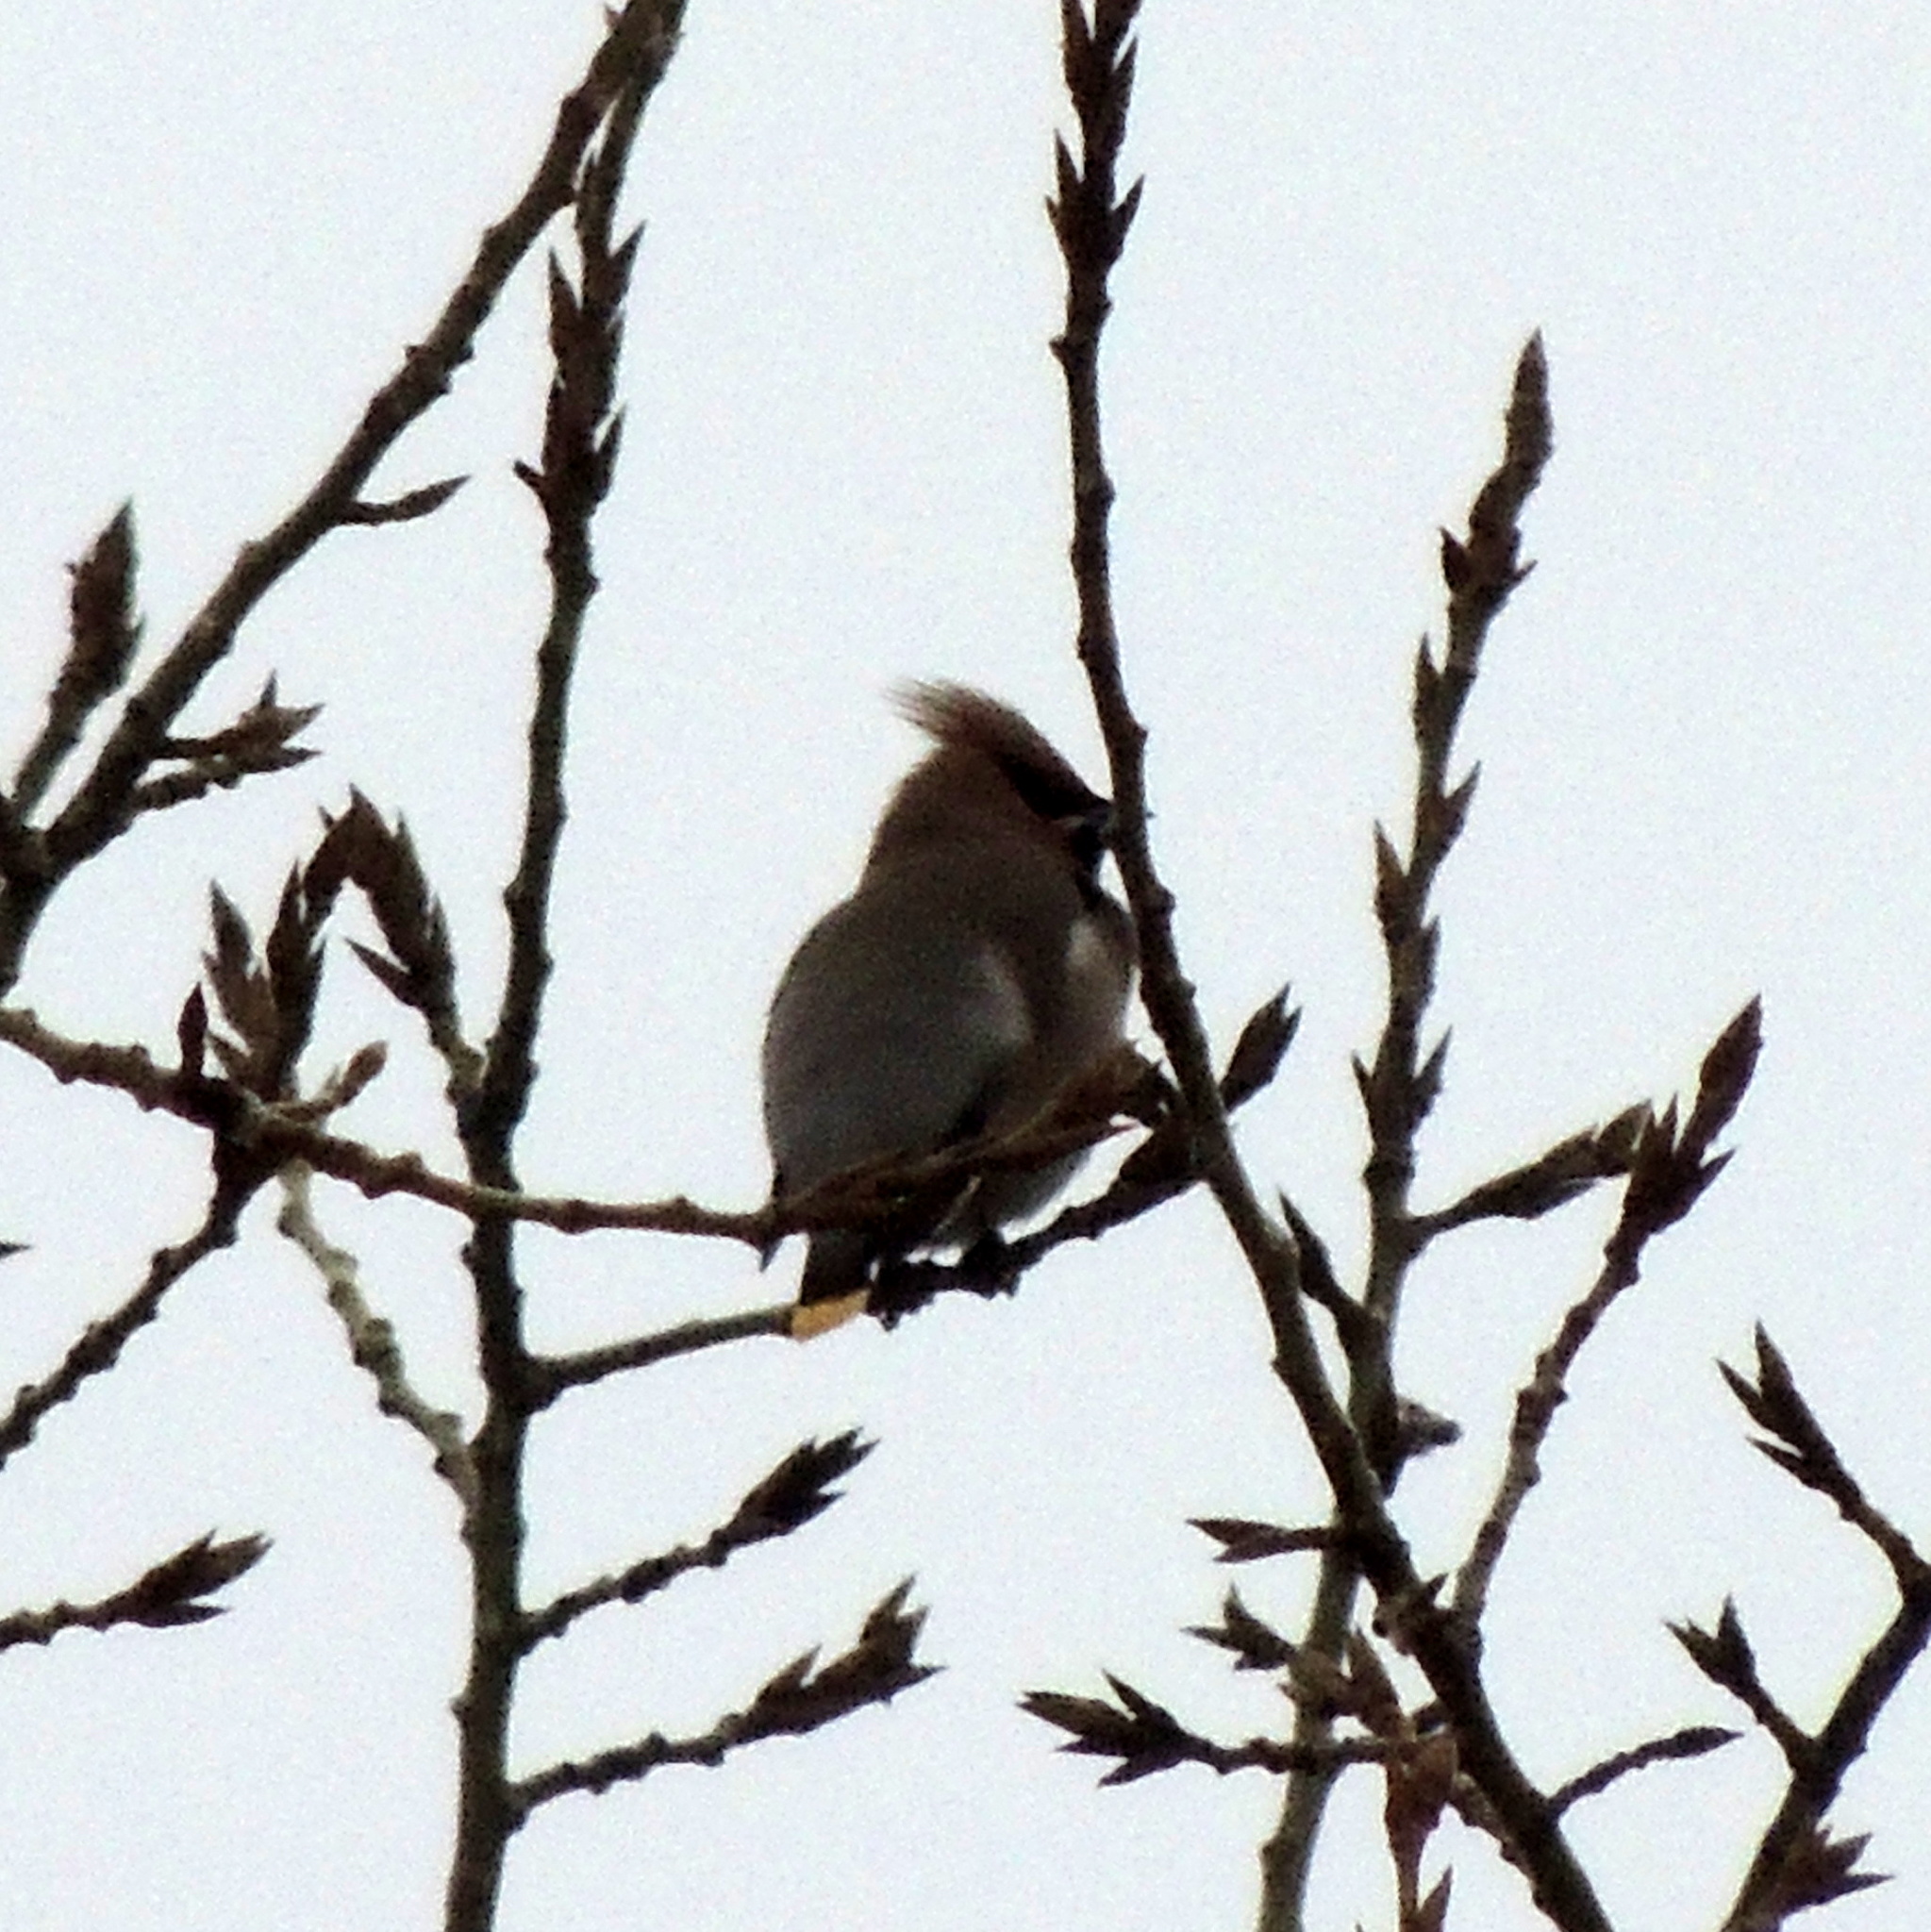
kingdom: Animalia
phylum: Chordata
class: Aves
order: Passeriformes
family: Bombycillidae
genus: Bombycilla
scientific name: Bombycilla garrulus
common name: Bohemian waxwing
